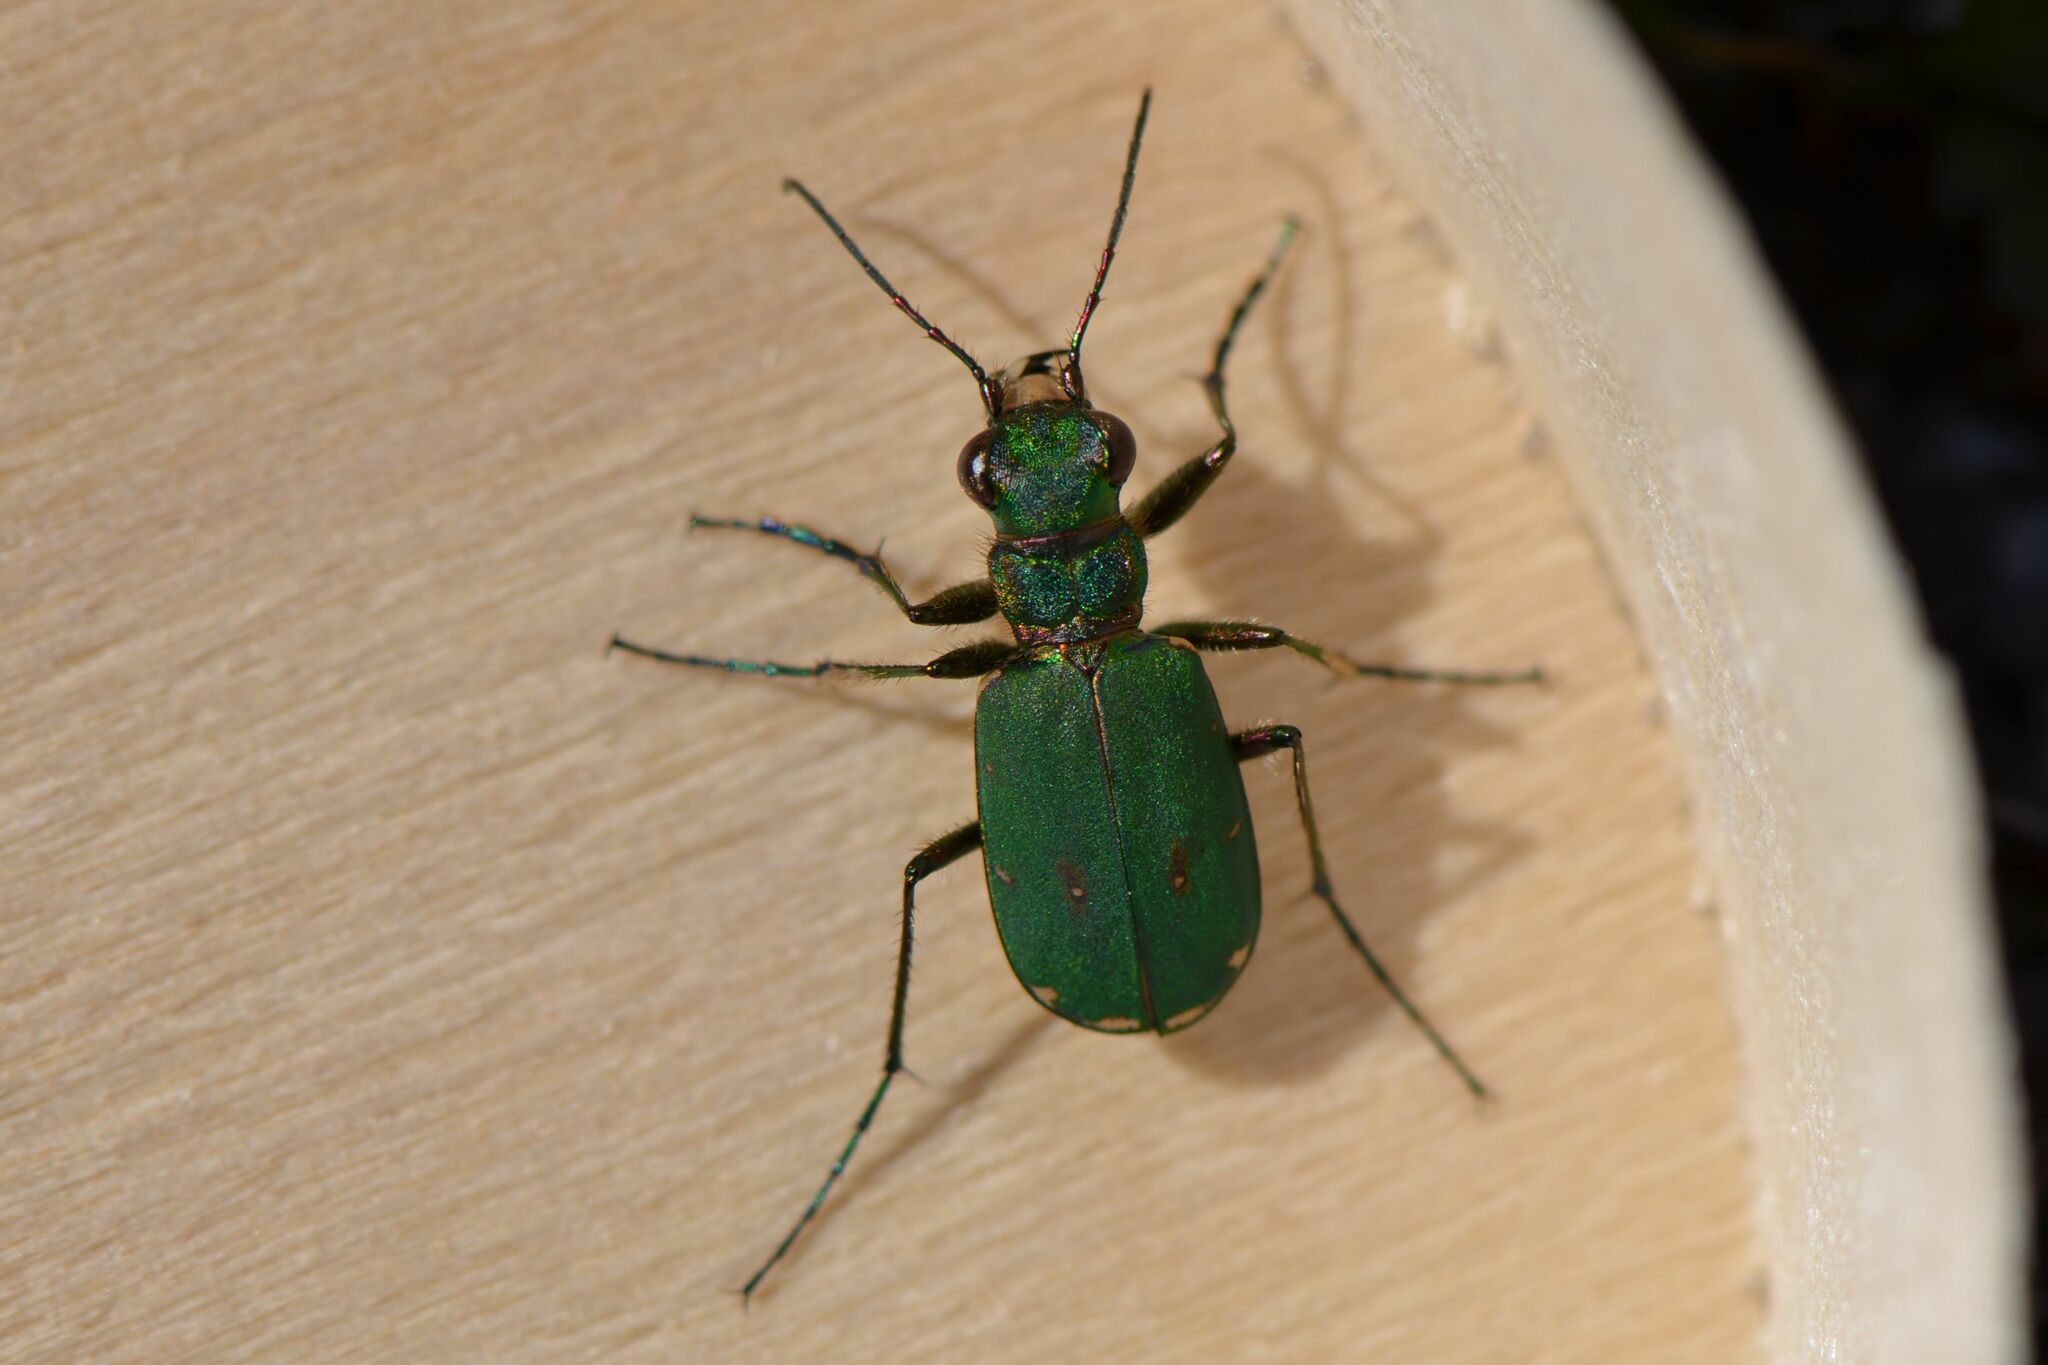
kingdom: Animalia
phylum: Arthropoda
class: Insecta
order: Coleoptera
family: Carabidae
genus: Cicindela
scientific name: Cicindela campestris
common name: Common tiger beetle
